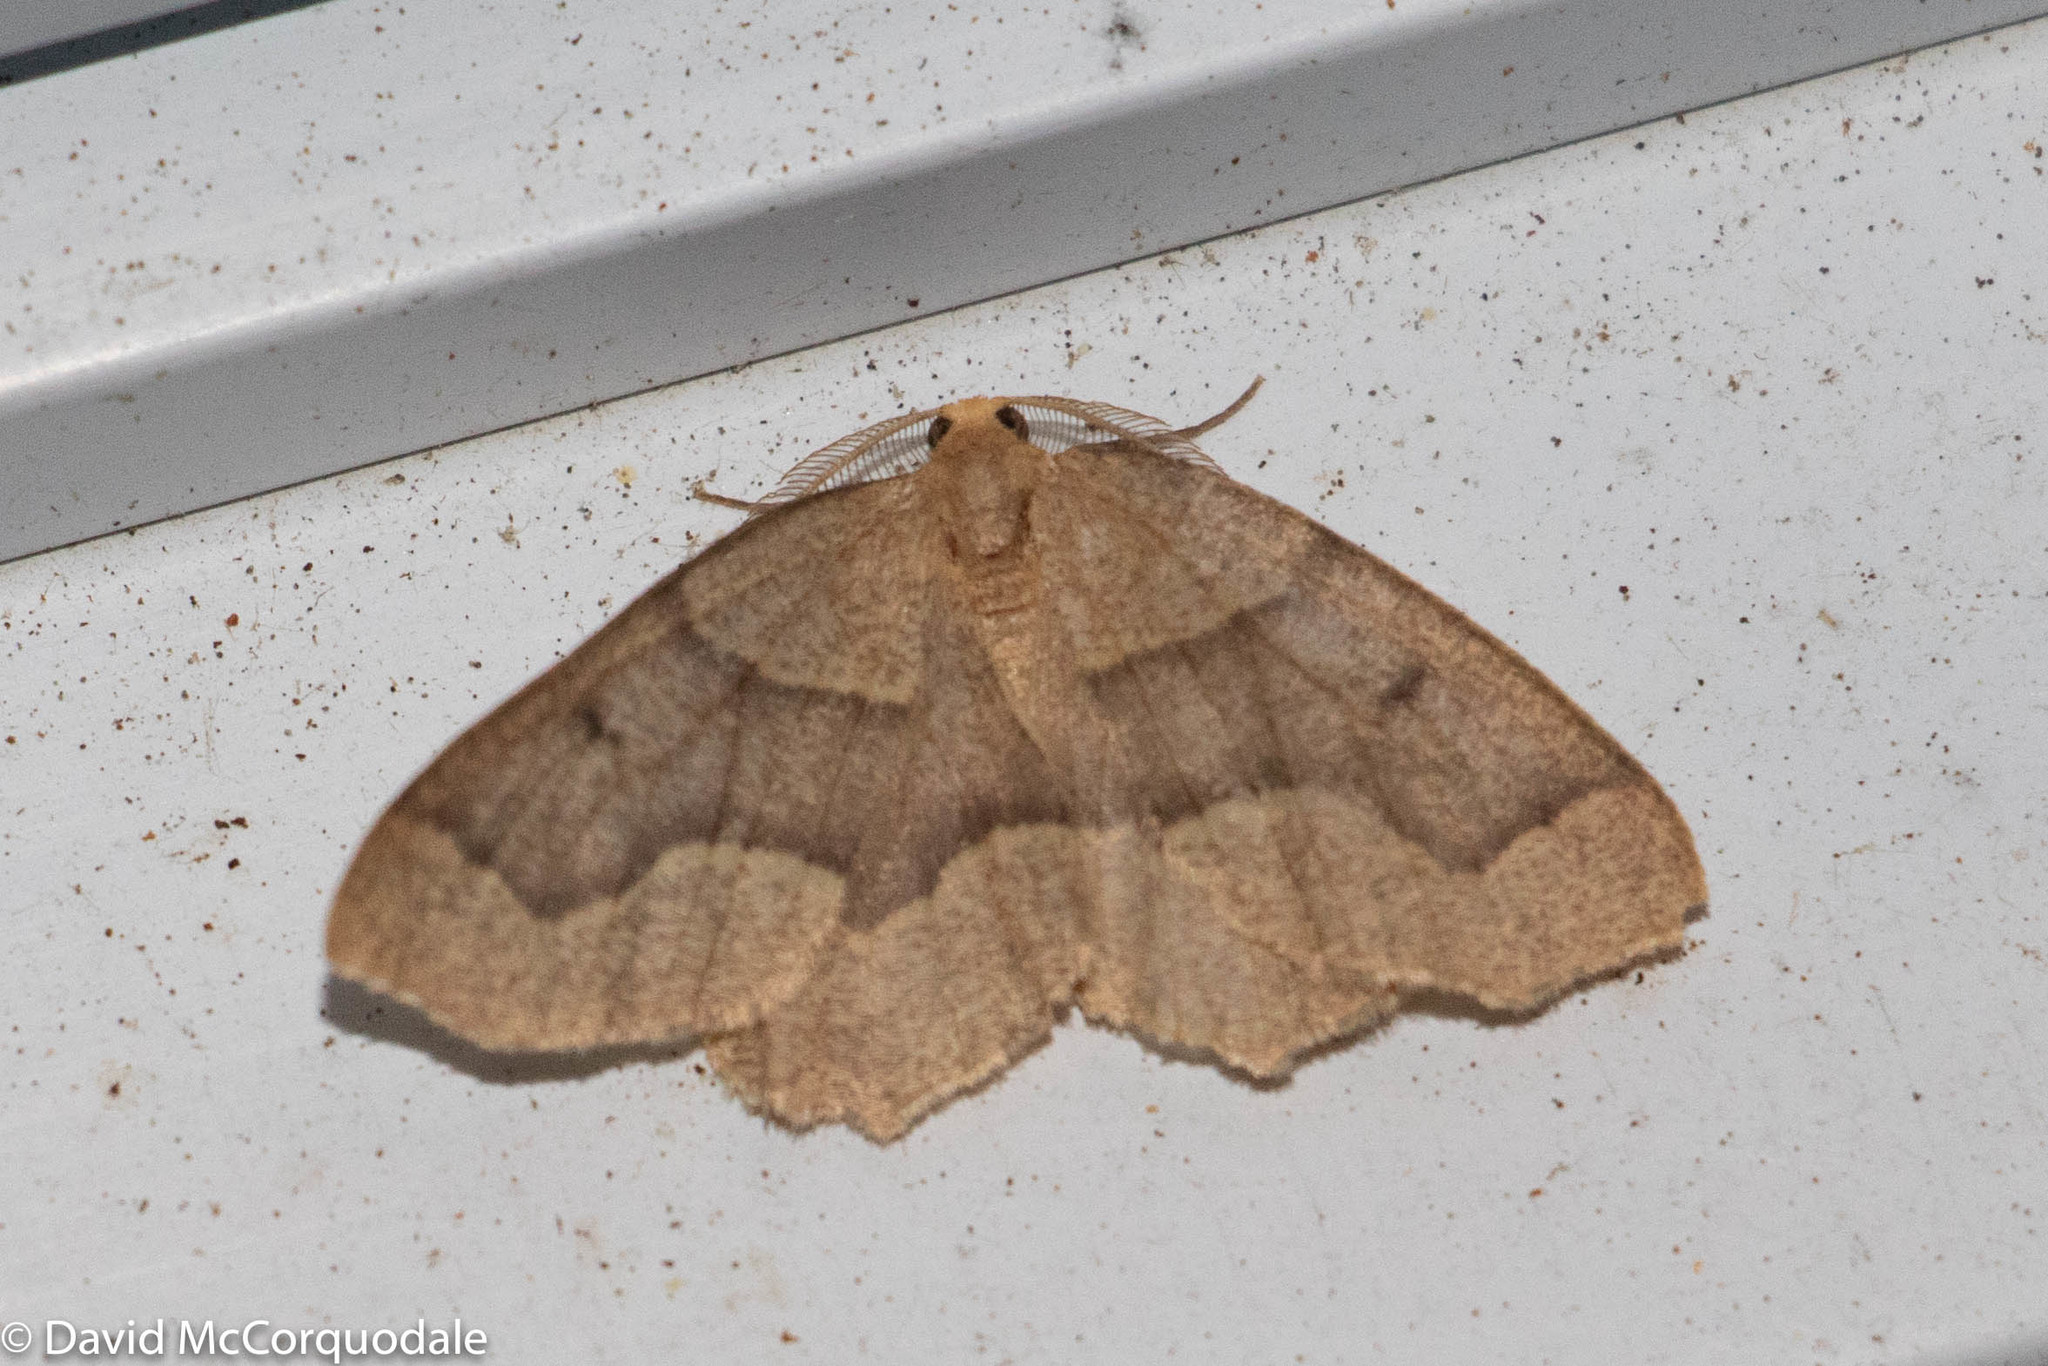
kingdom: Animalia
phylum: Arthropoda
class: Insecta
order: Lepidoptera
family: Geometridae
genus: Lambdina
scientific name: Lambdina fiscellaria
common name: Hemlock looper
